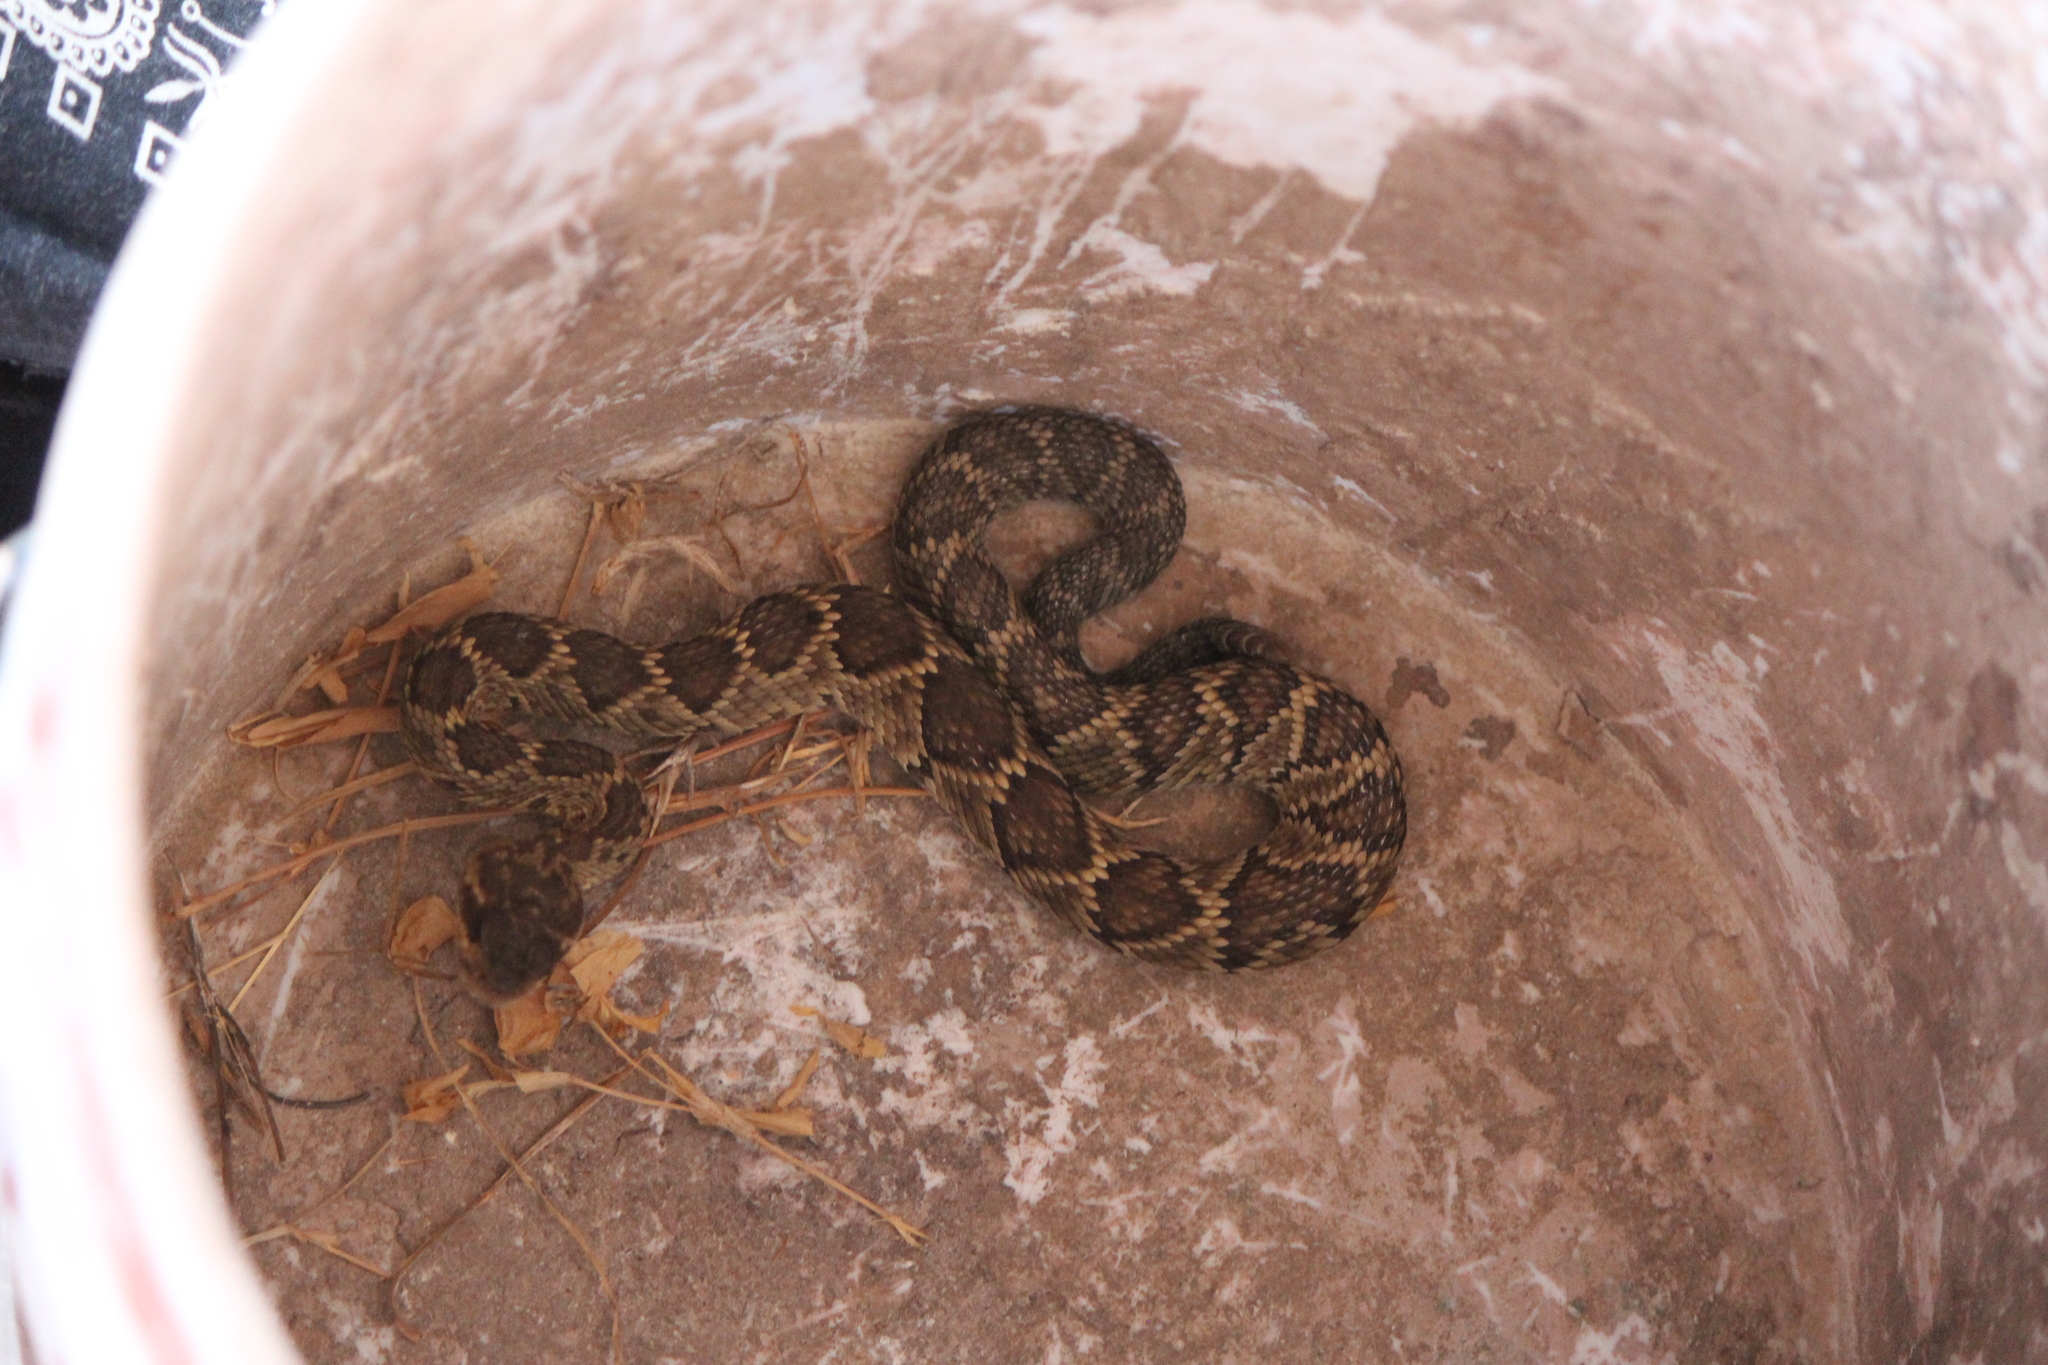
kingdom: Animalia
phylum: Chordata
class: Squamata
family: Viperidae
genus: Crotalus
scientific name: Crotalus molossus
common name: Black tailed rattlesnake
